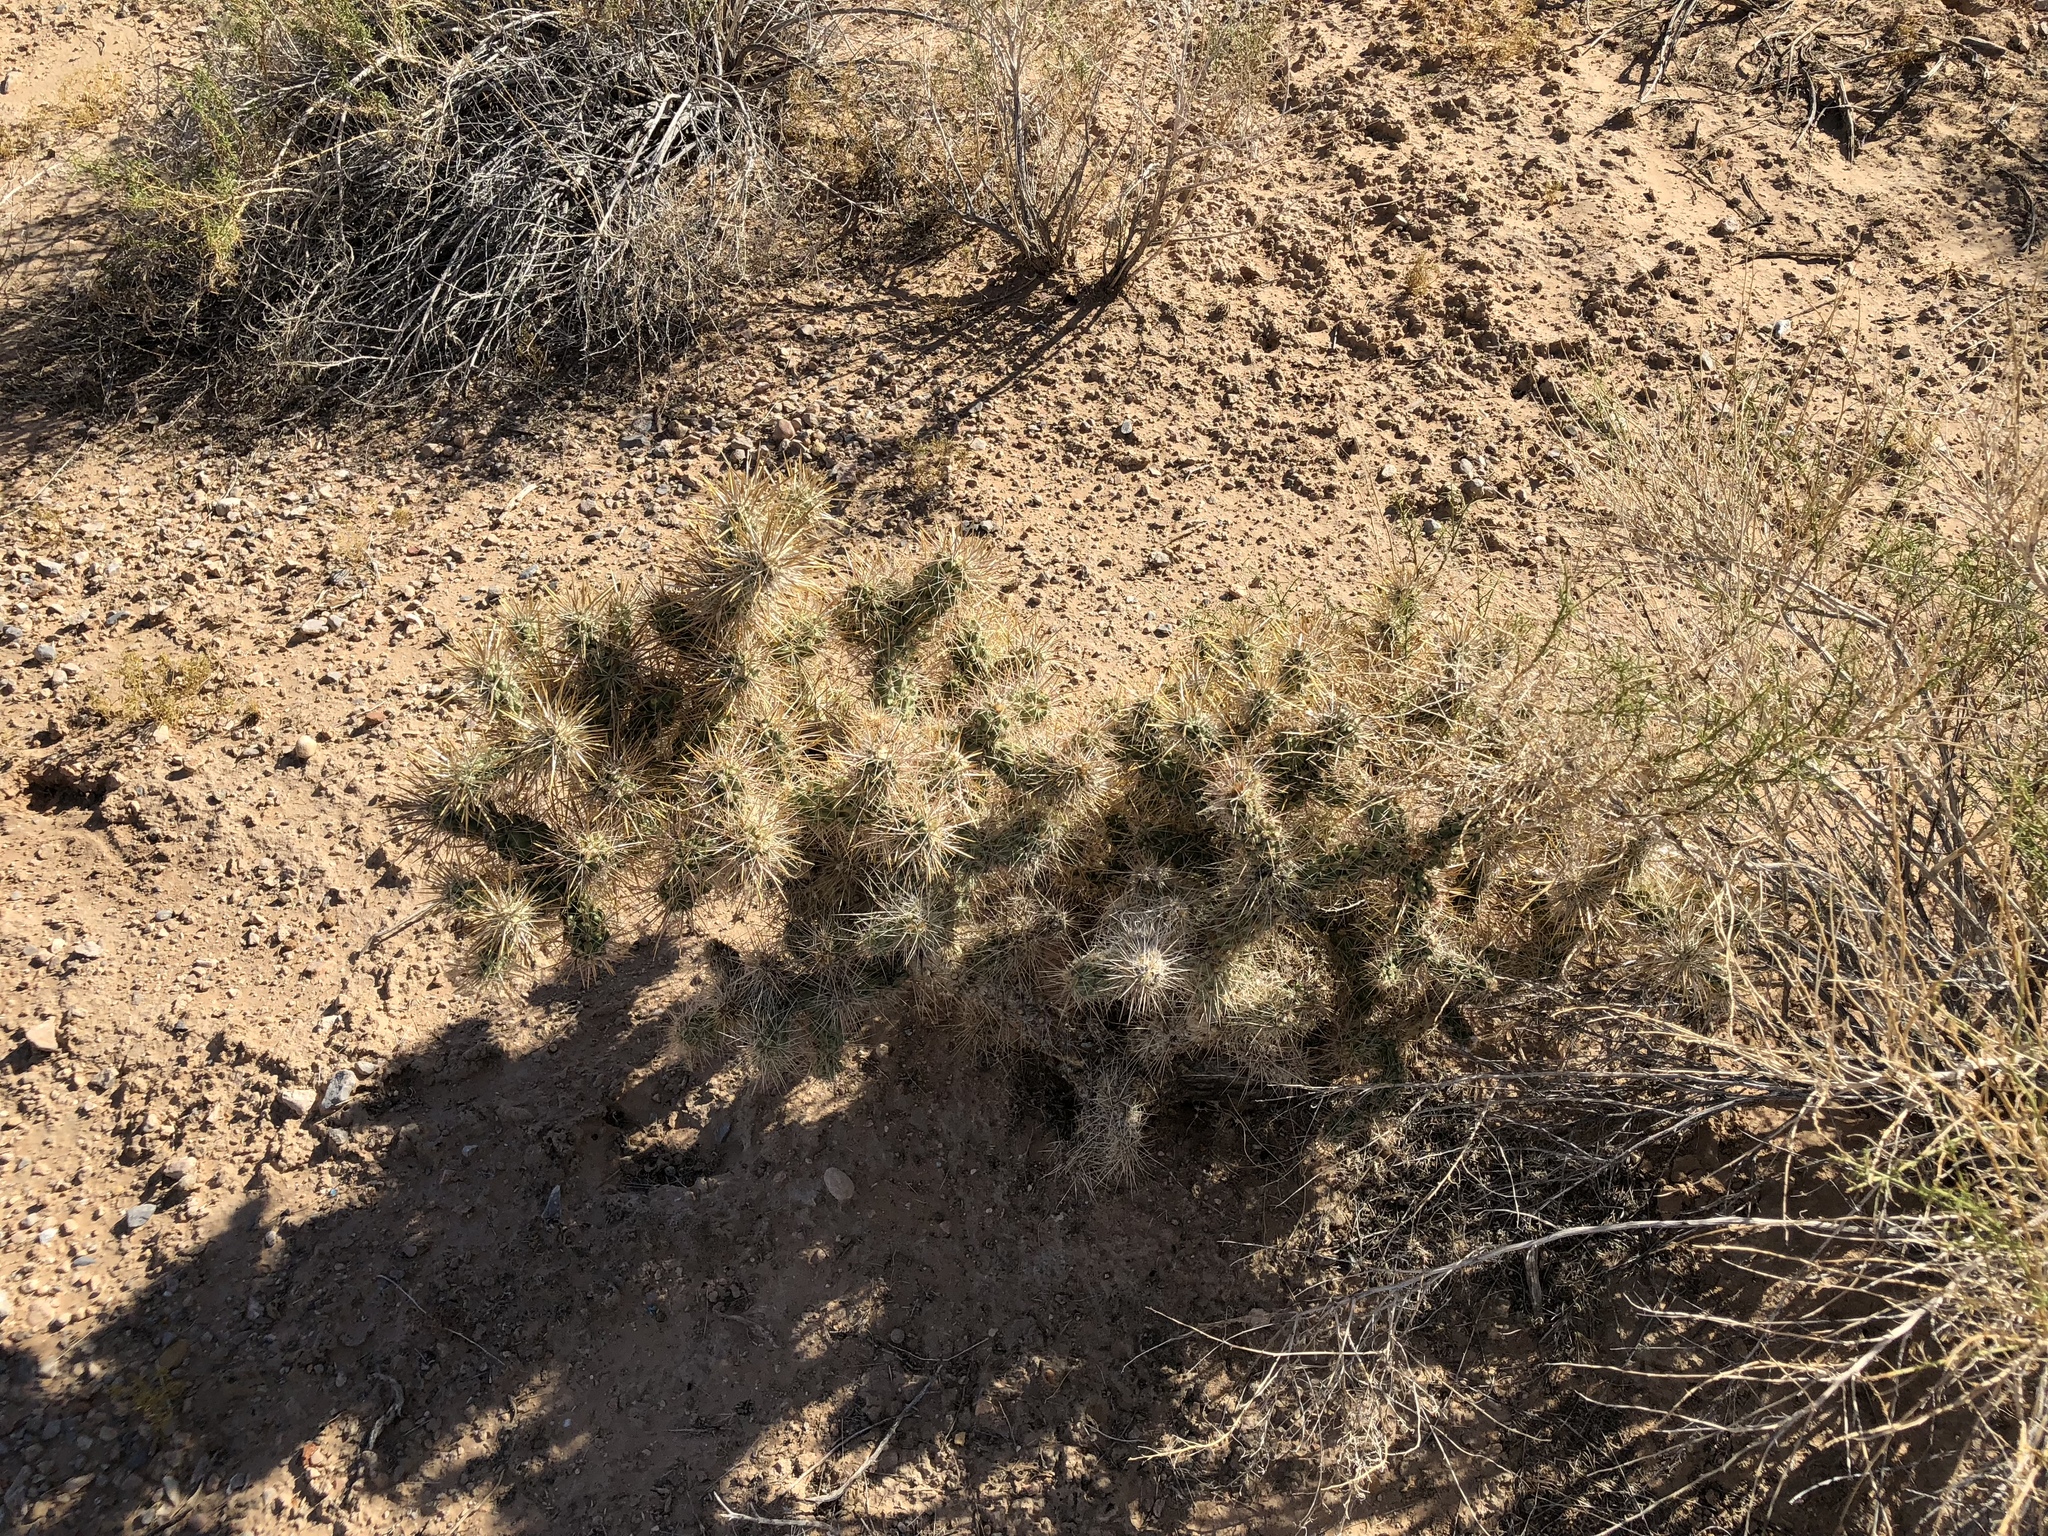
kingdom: Plantae
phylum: Tracheophyta
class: Magnoliopsida
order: Caryophyllales
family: Cactaceae
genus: Cylindropuntia
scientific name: Cylindropuntia echinocarpa
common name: Ground cholla
